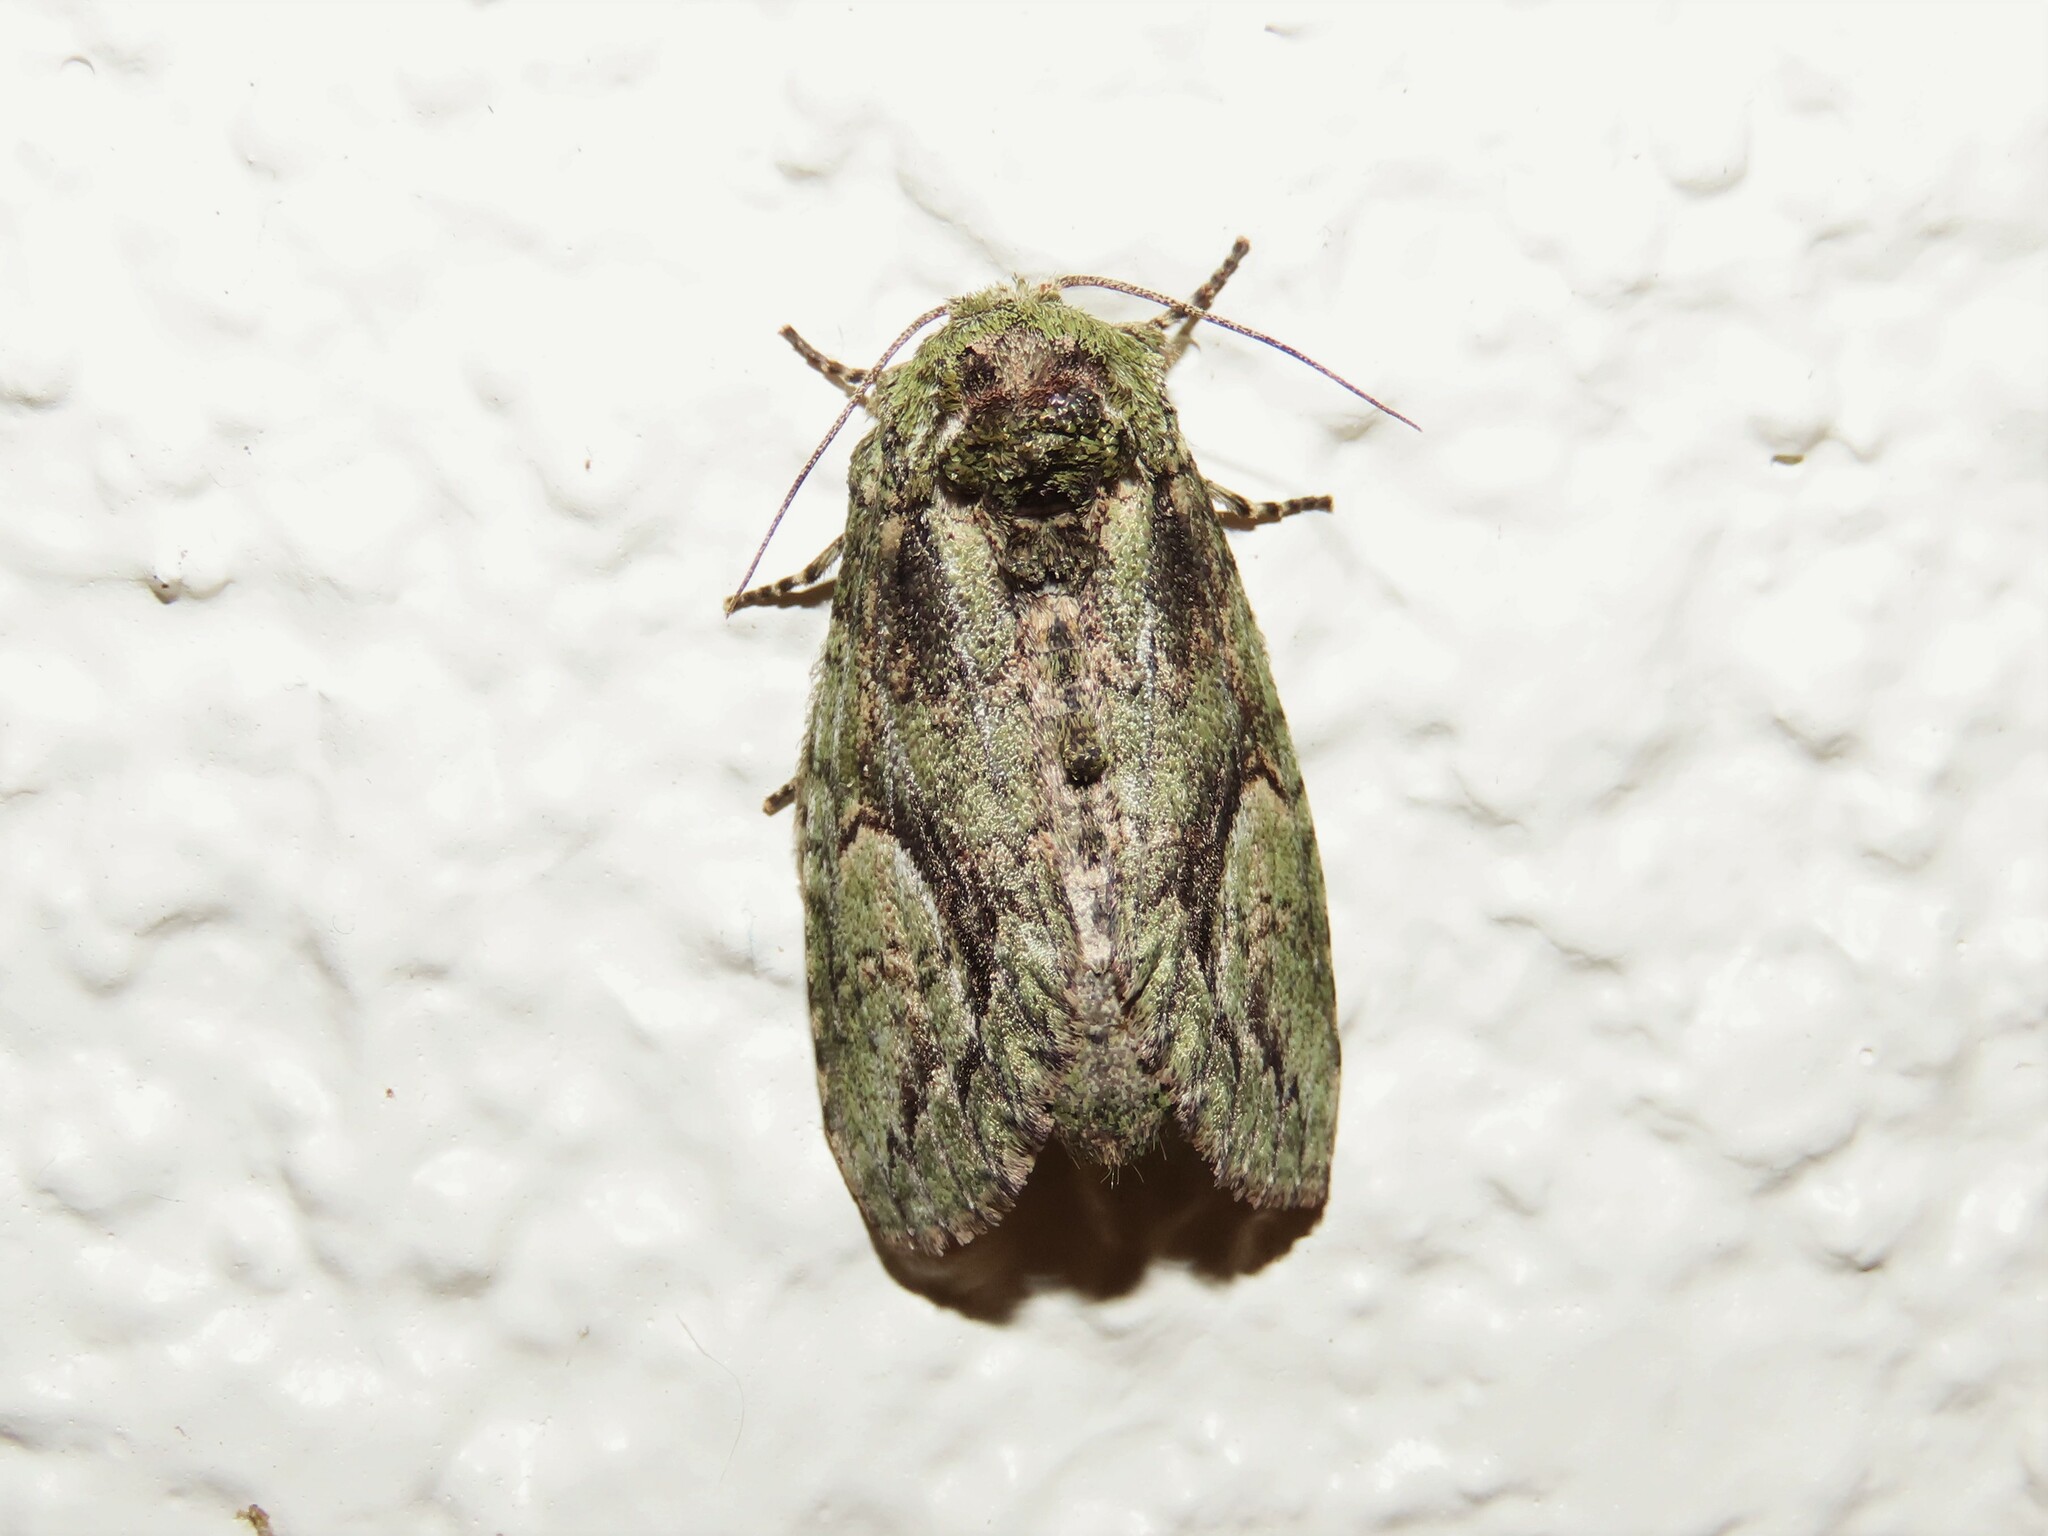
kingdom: Animalia
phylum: Arthropoda
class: Insecta
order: Lepidoptera
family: Notodontidae
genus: Heterocampa
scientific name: Heterocampa umbrata
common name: White-blotched heterocampa
